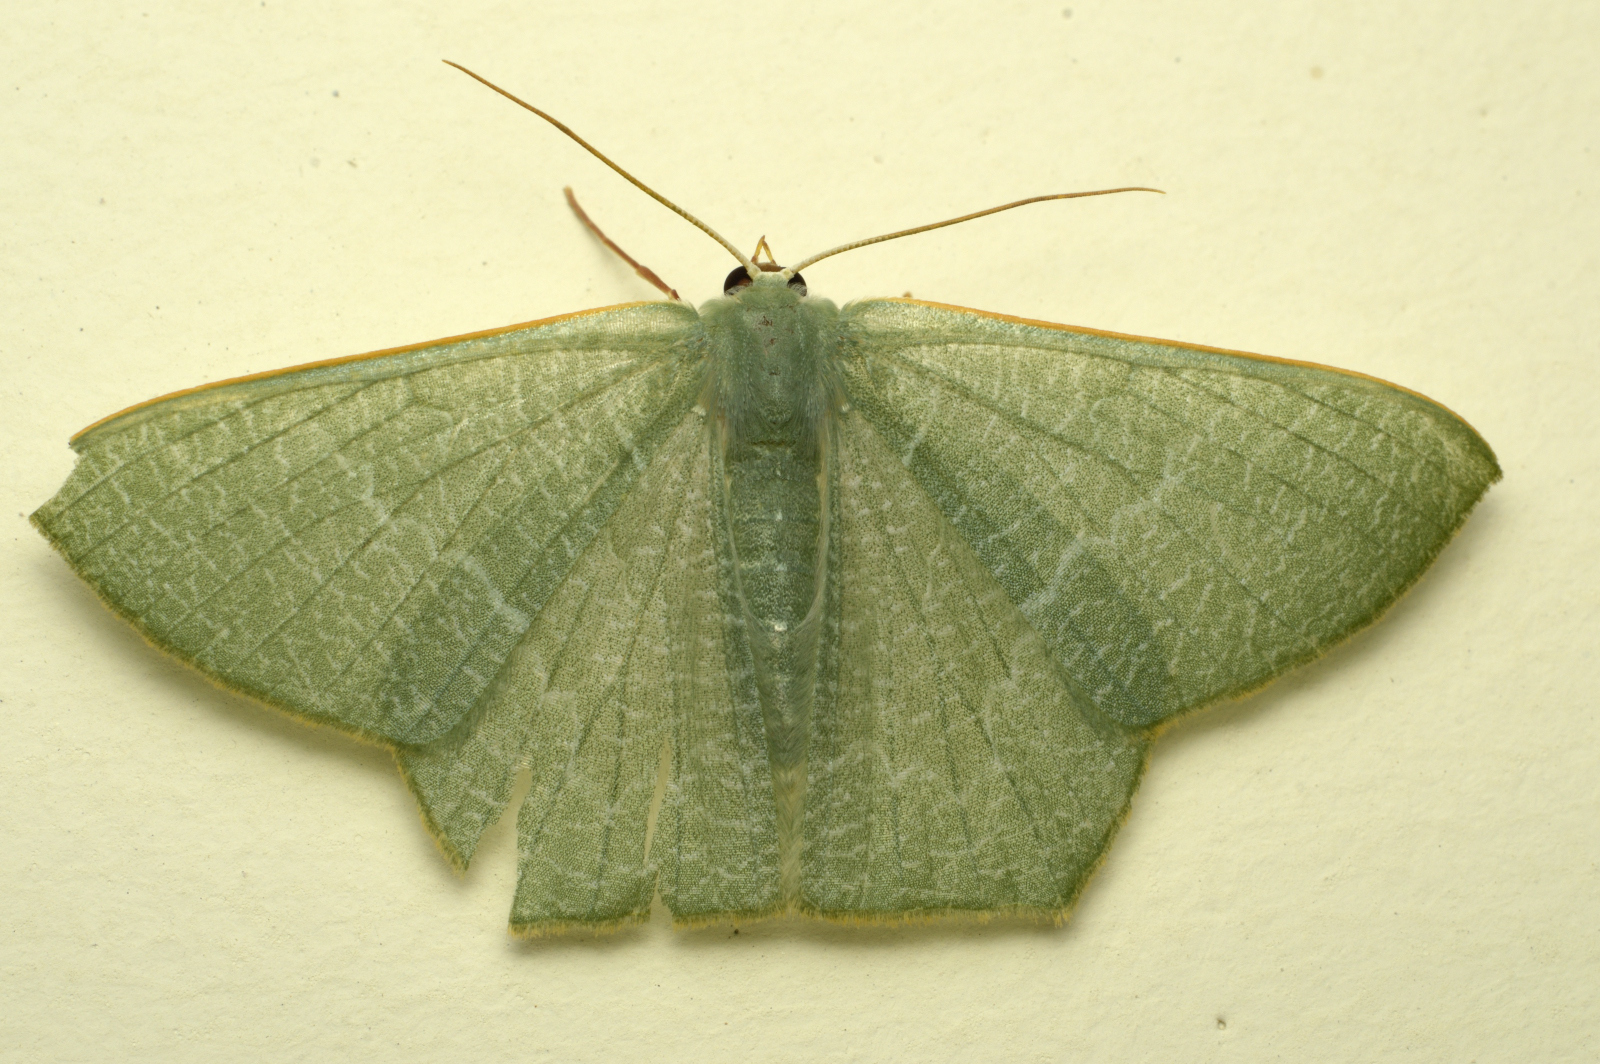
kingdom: Animalia
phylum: Arthropoda
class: Insecta
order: Lepidoptera
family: Geometridae
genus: Pelagodes
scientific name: Pelagodes antiquadraria
